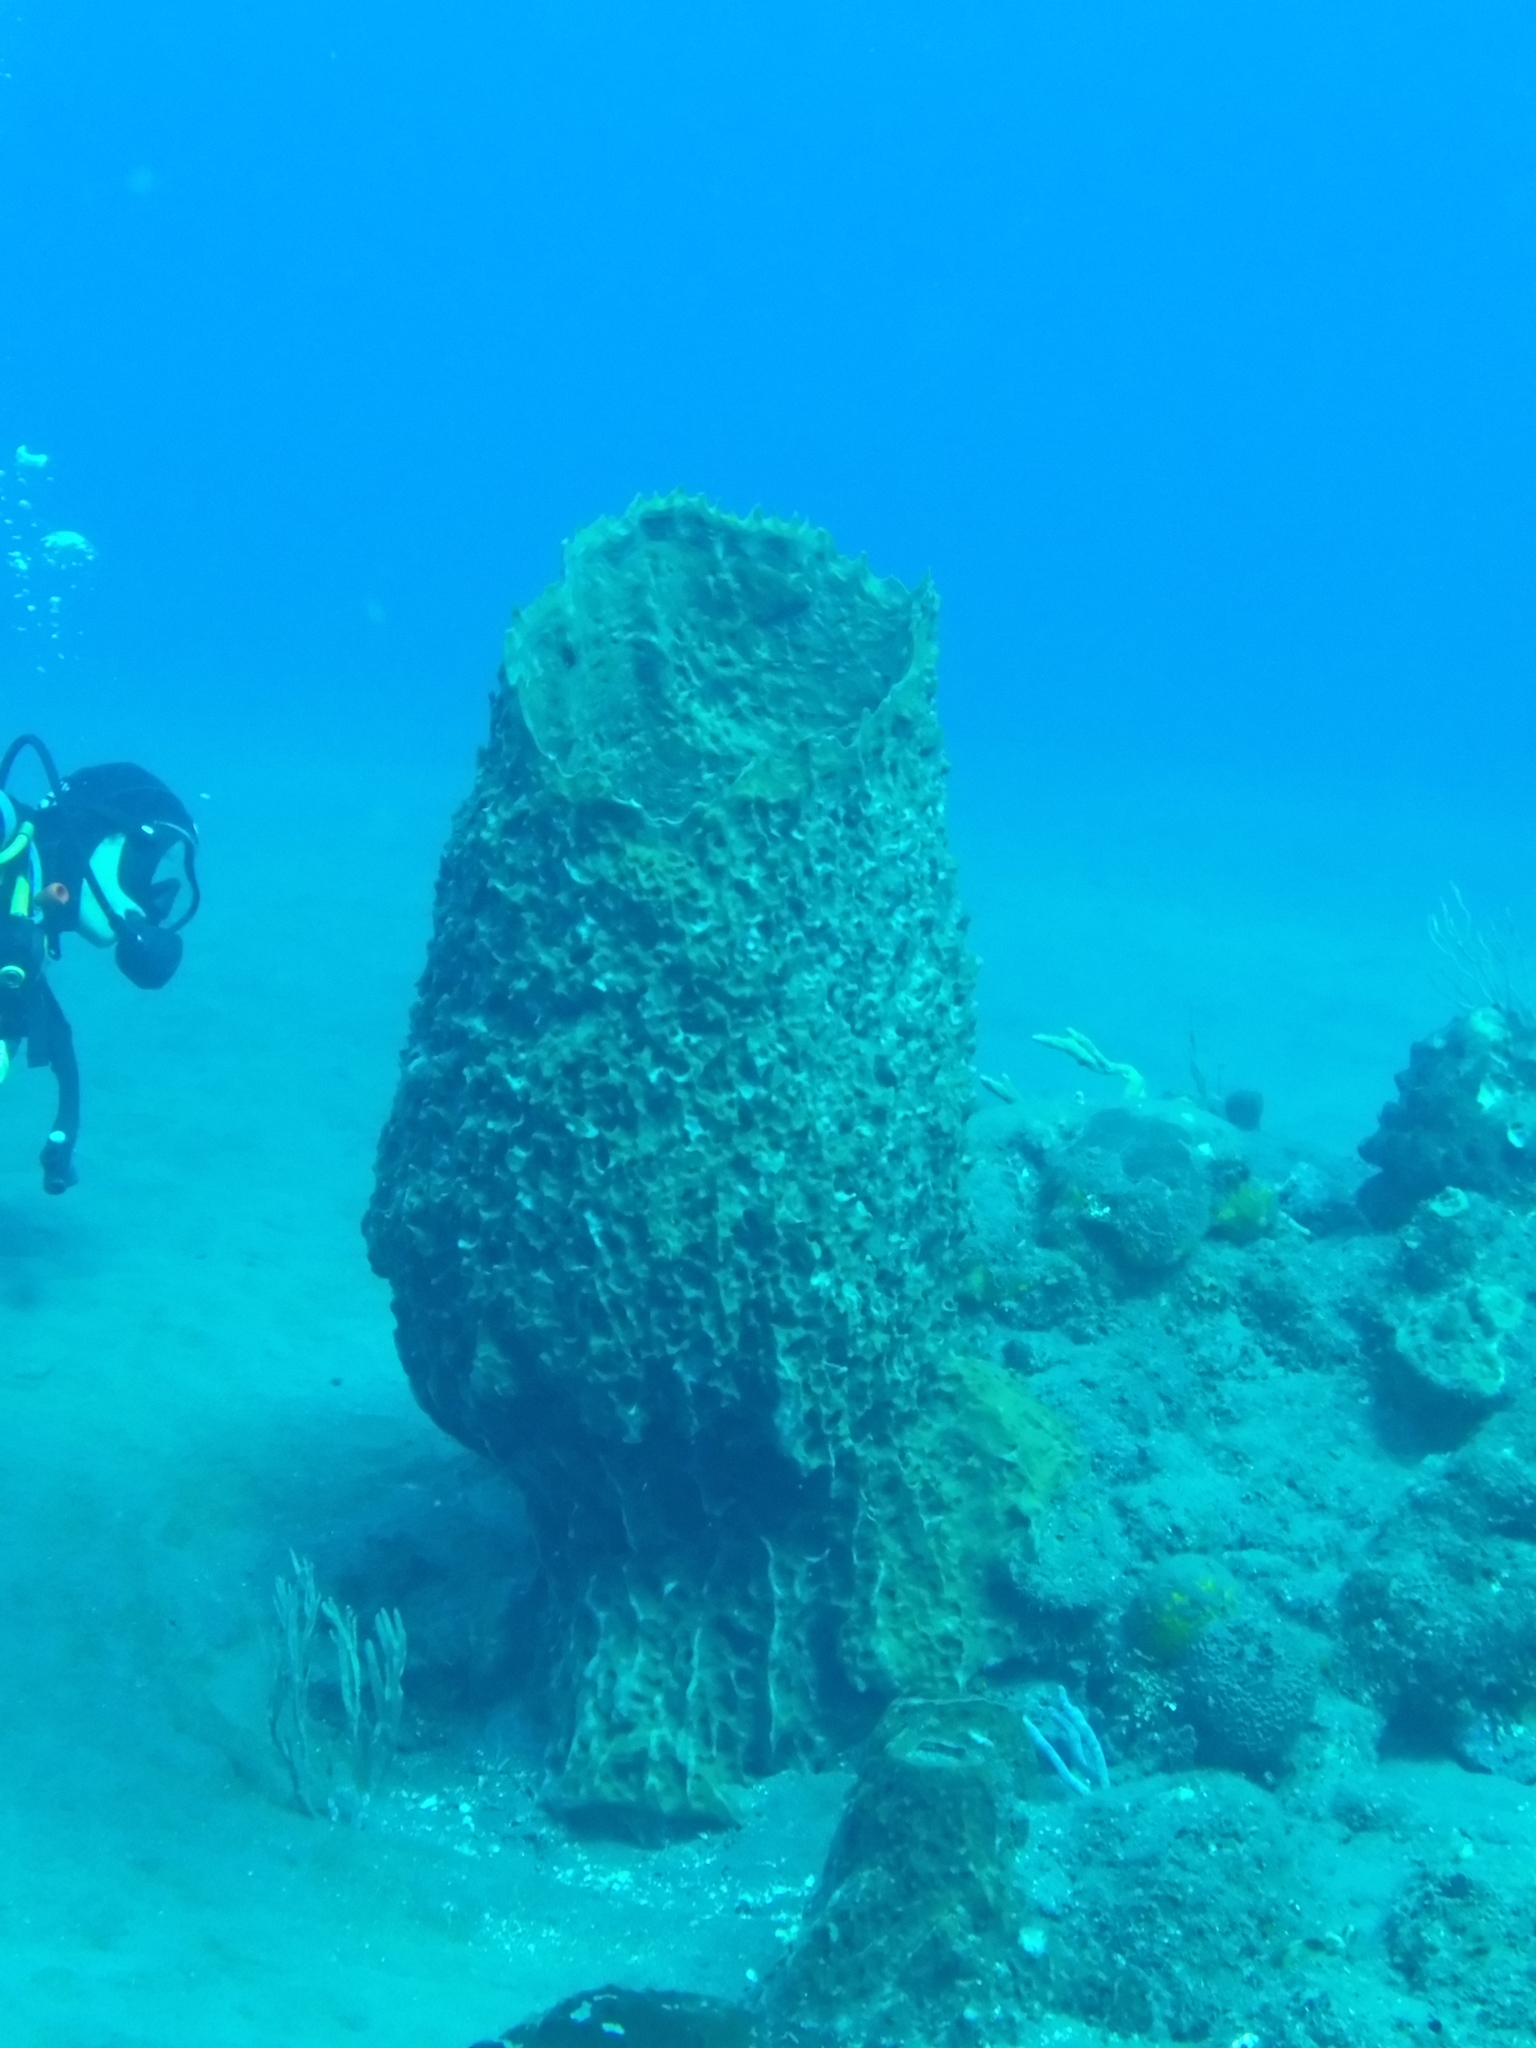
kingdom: Animalia
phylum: Porifera
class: Demospongiae
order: Haplosclerida
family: Petrosiidae
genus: Xestospongia
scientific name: Xestospongia muta
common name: Giant barrel sponge
